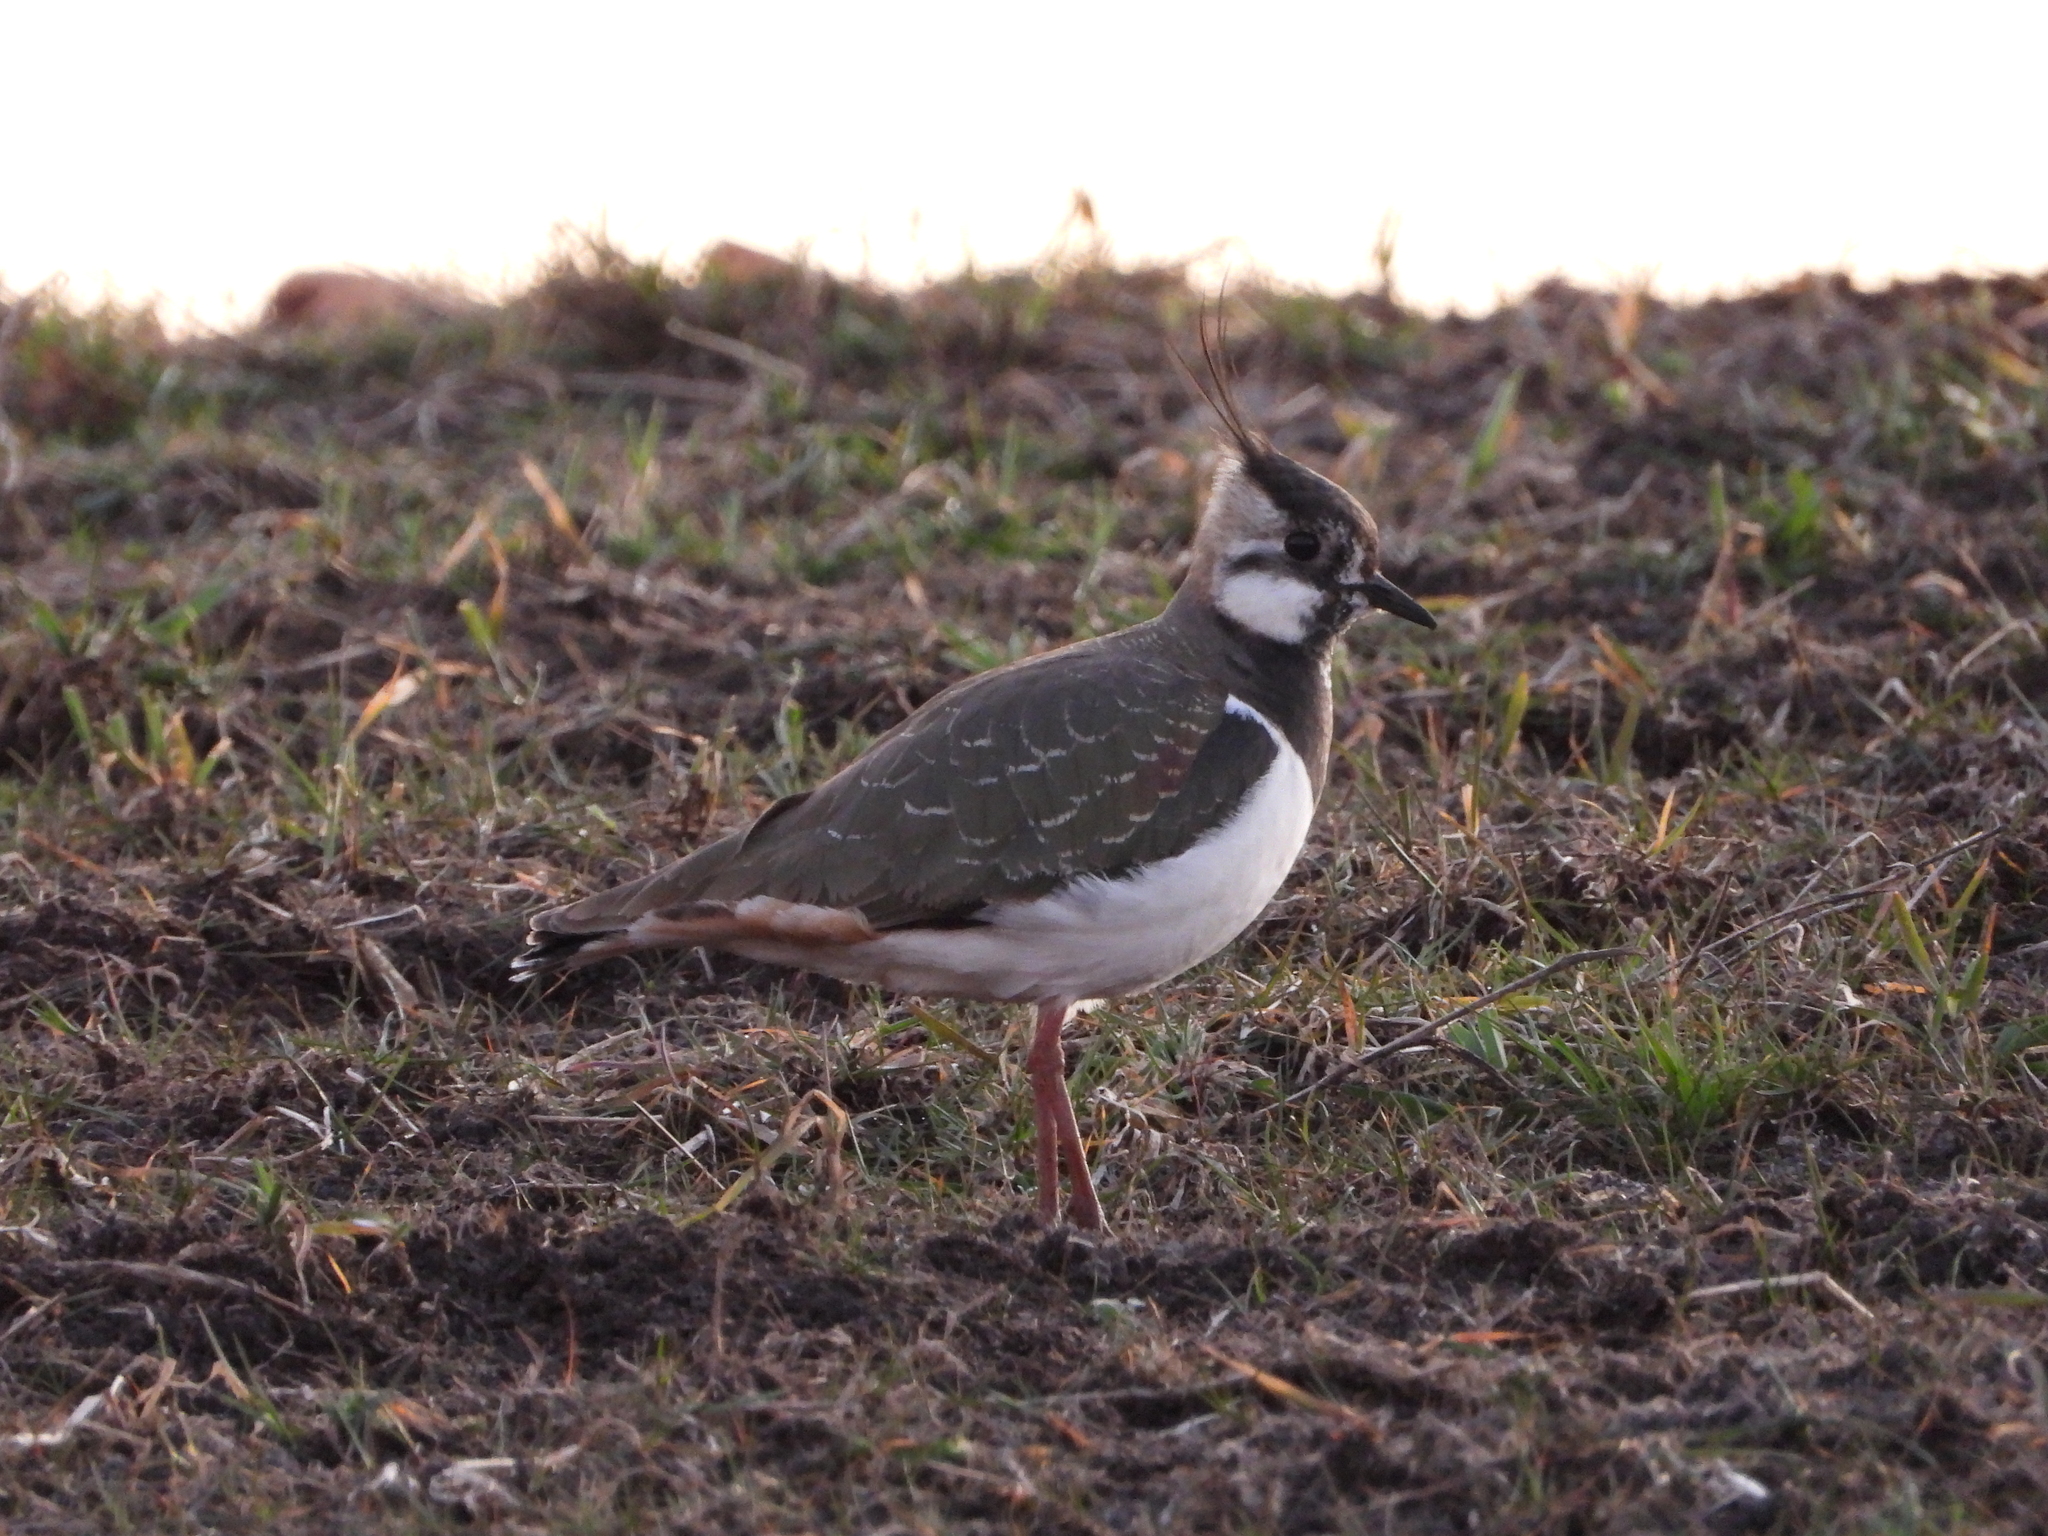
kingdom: Animalia
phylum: Chordata
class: Aves
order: Charadriiformes
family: Charadriidae
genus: Vanellus
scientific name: Vanellus vanellus
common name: Northern lapwing
